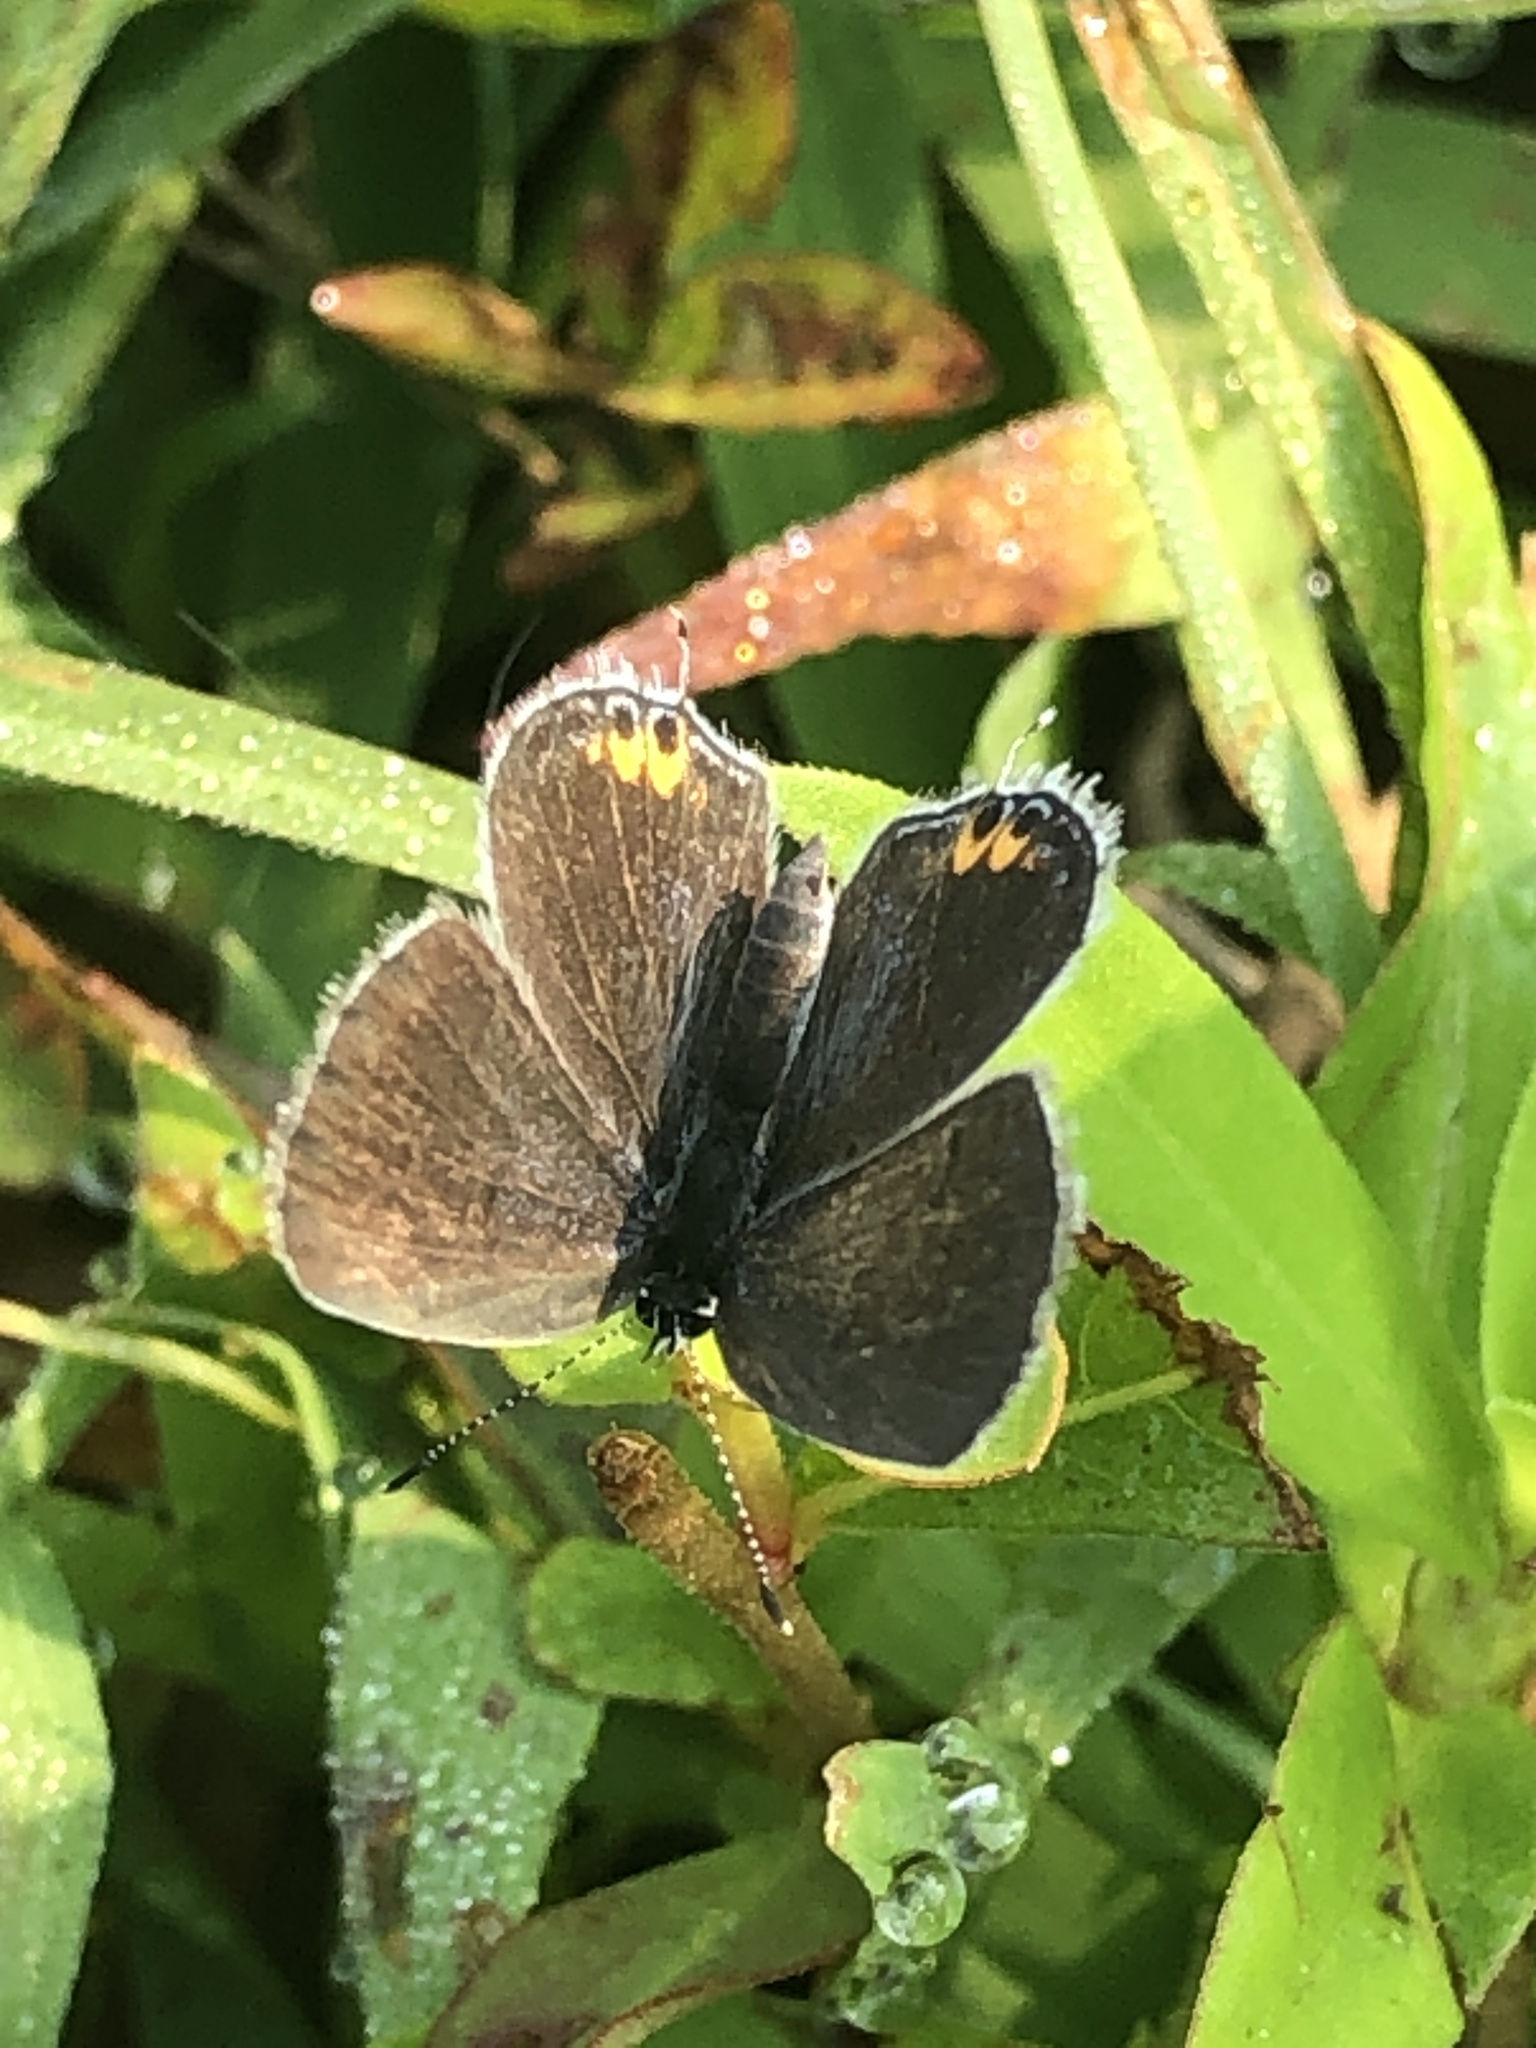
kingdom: Animalia
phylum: Arthropoda
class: Insecta
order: Lepidoptera
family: Lycaenidae
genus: Elkalyce
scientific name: Elkalyce comyntas
